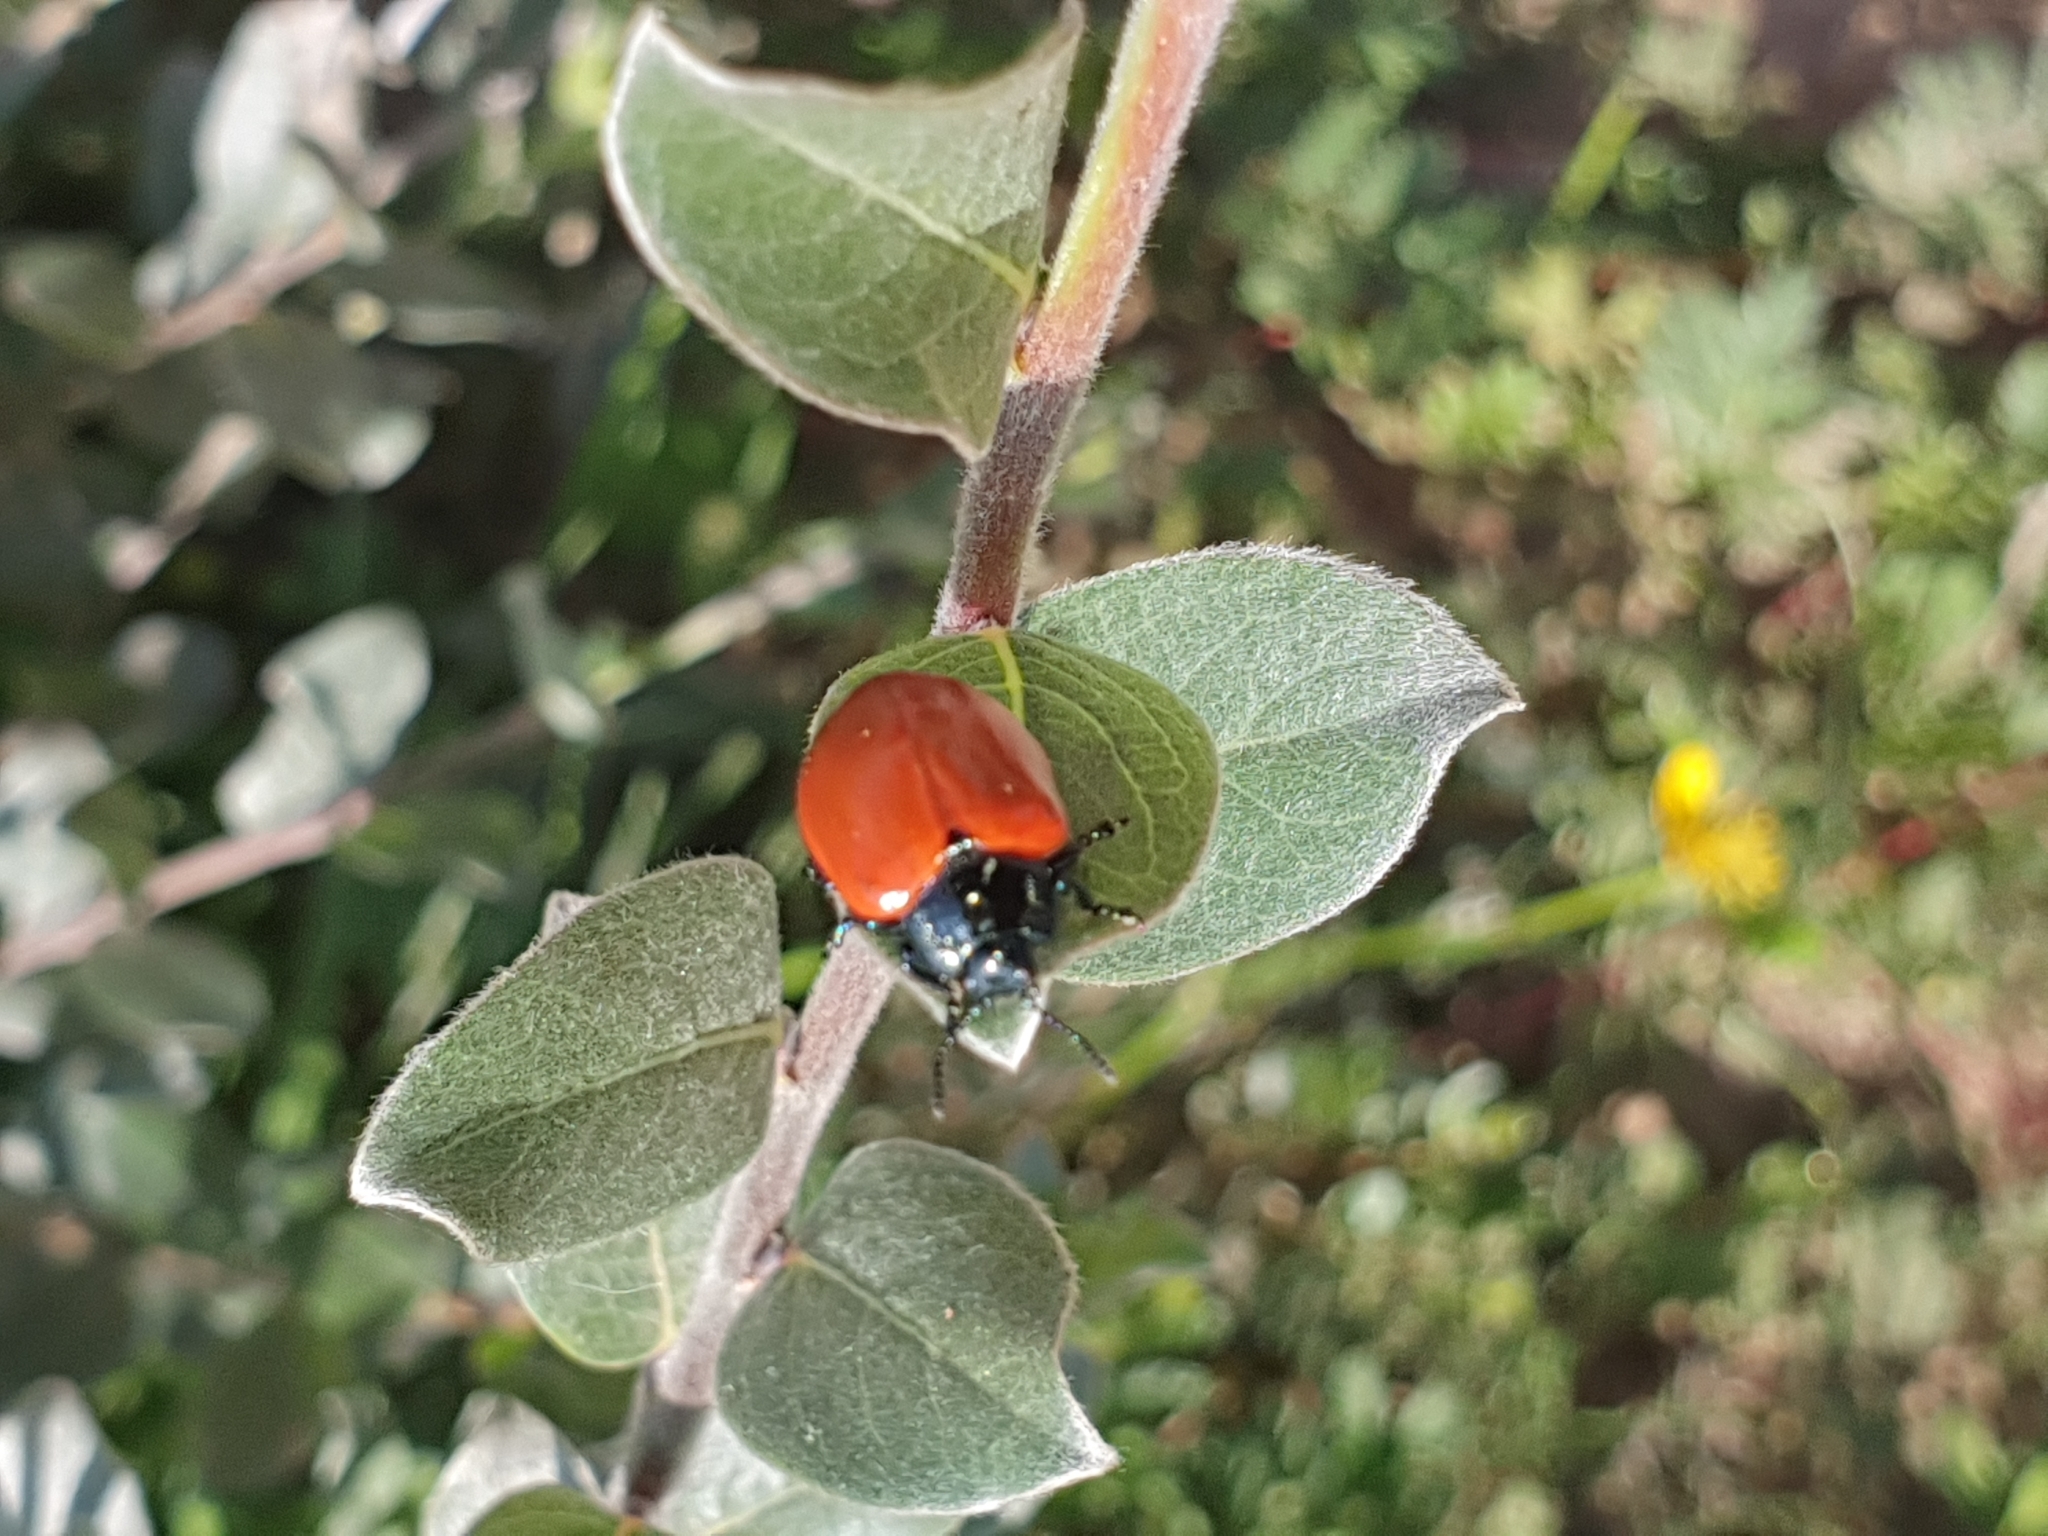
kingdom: Animalia
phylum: Arthropoda
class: Insecta
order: Coleoptera
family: Chrysomelidae
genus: Chrysomela
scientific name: Chrysomela populi
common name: Red poplar leaf beetle
